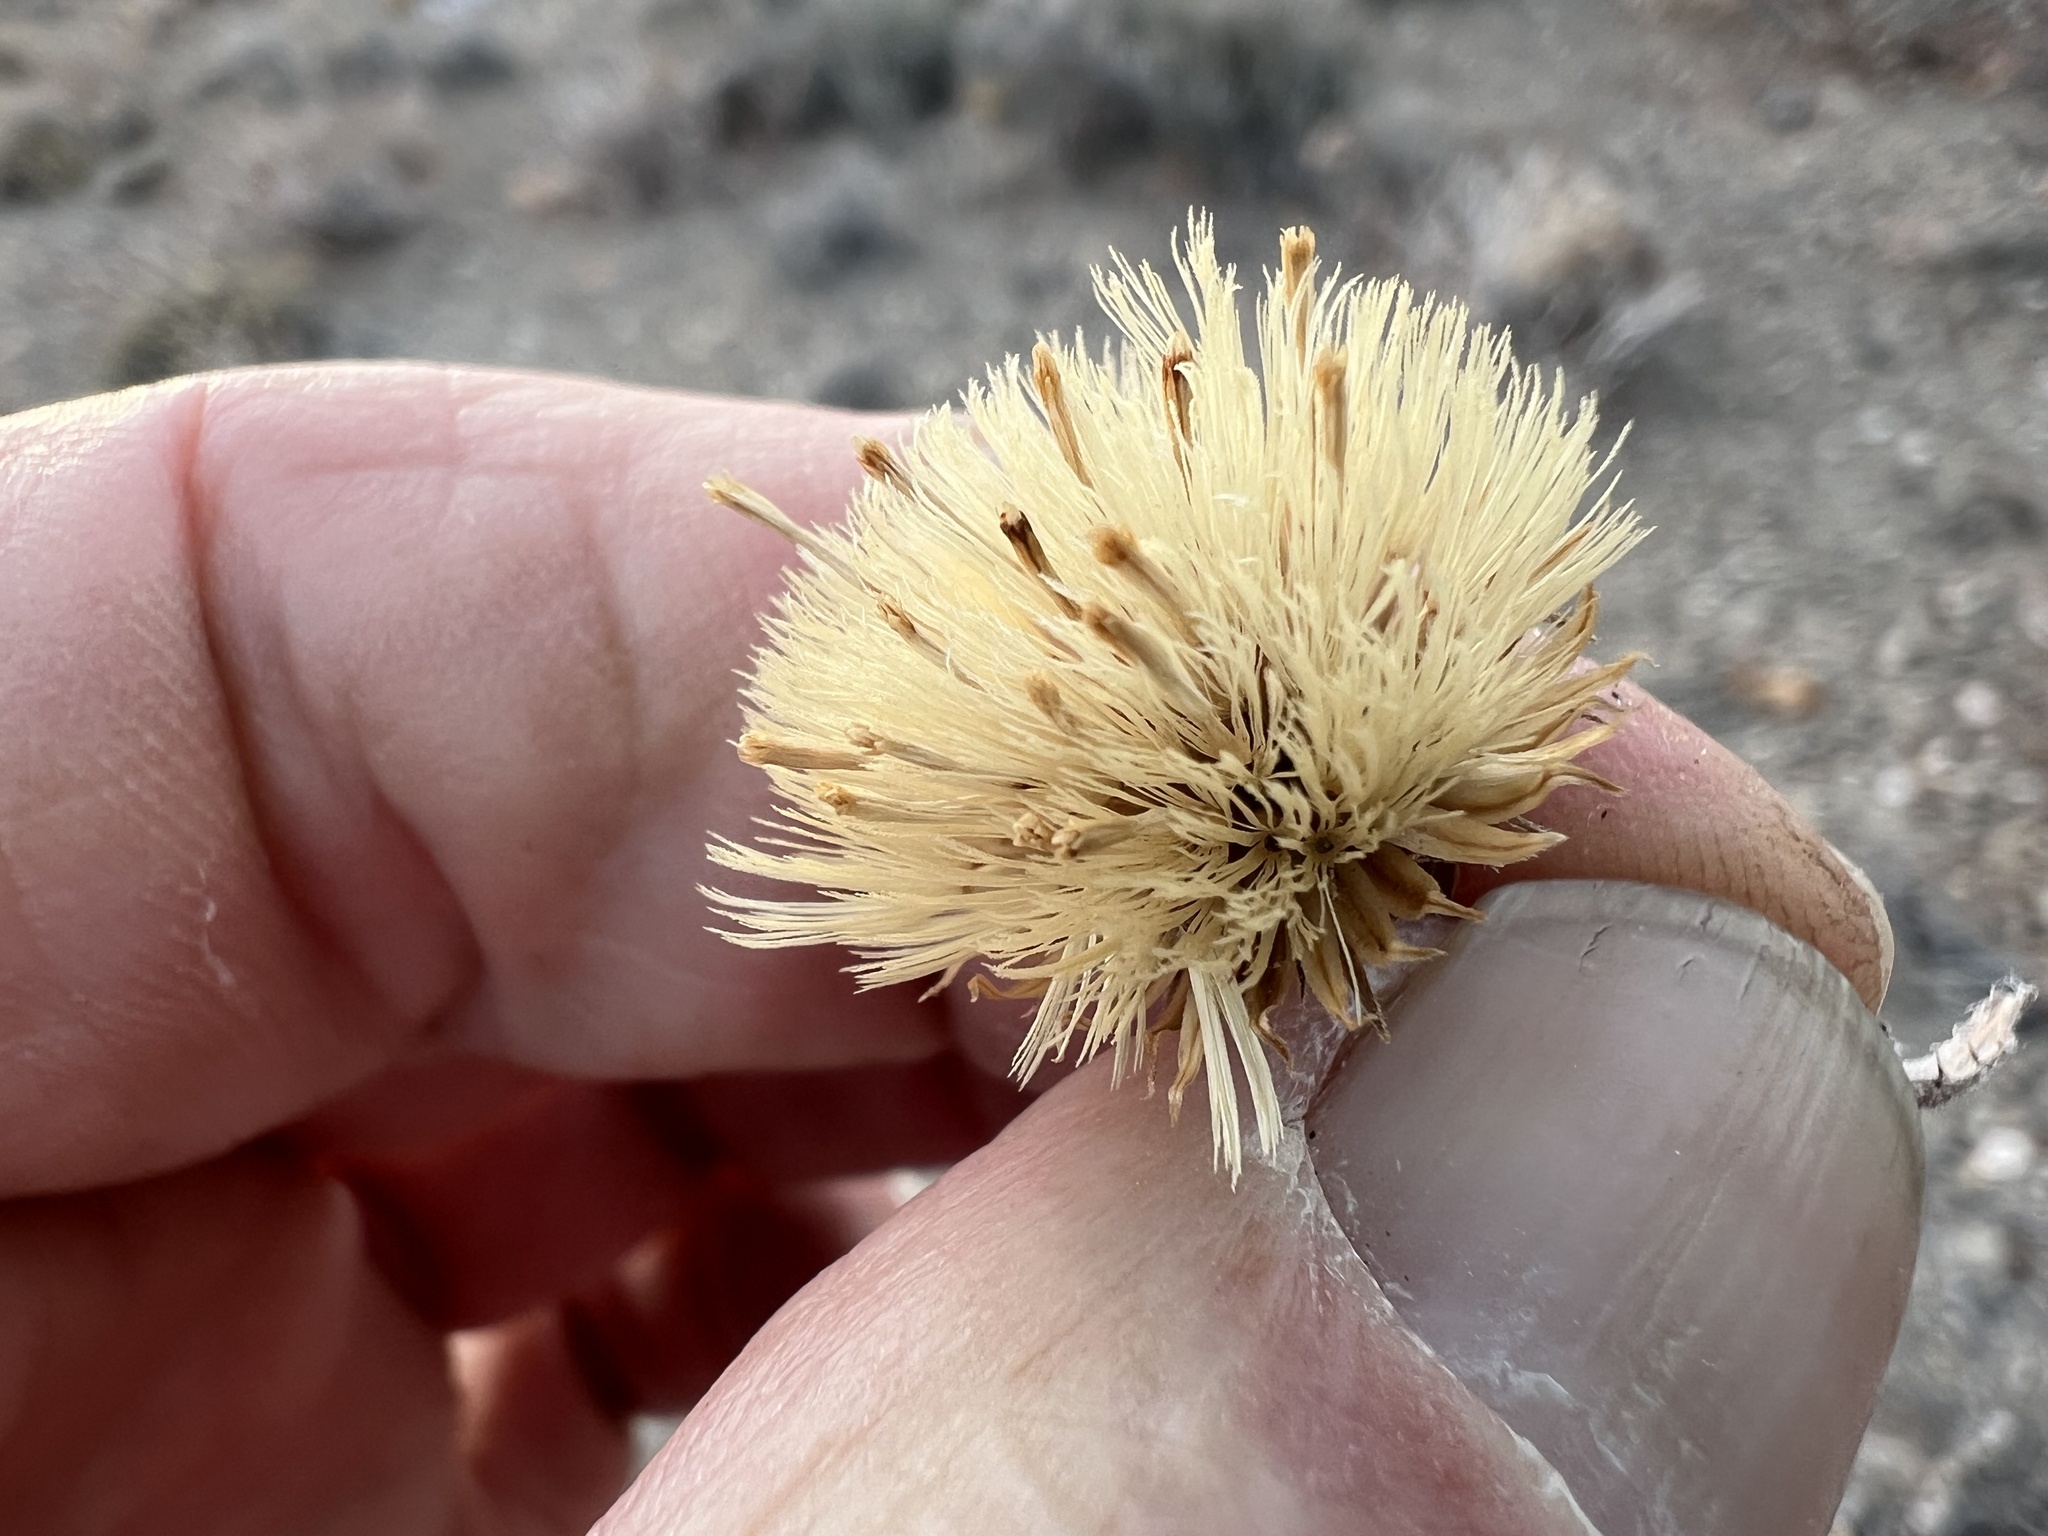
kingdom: Plantae
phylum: Tracheophyta
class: Magnoliopsida
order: Asterales
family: Asteraceae
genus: Xylorhiza
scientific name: Xylorhiza tortifolia
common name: Hurt-leaf woody-aster
